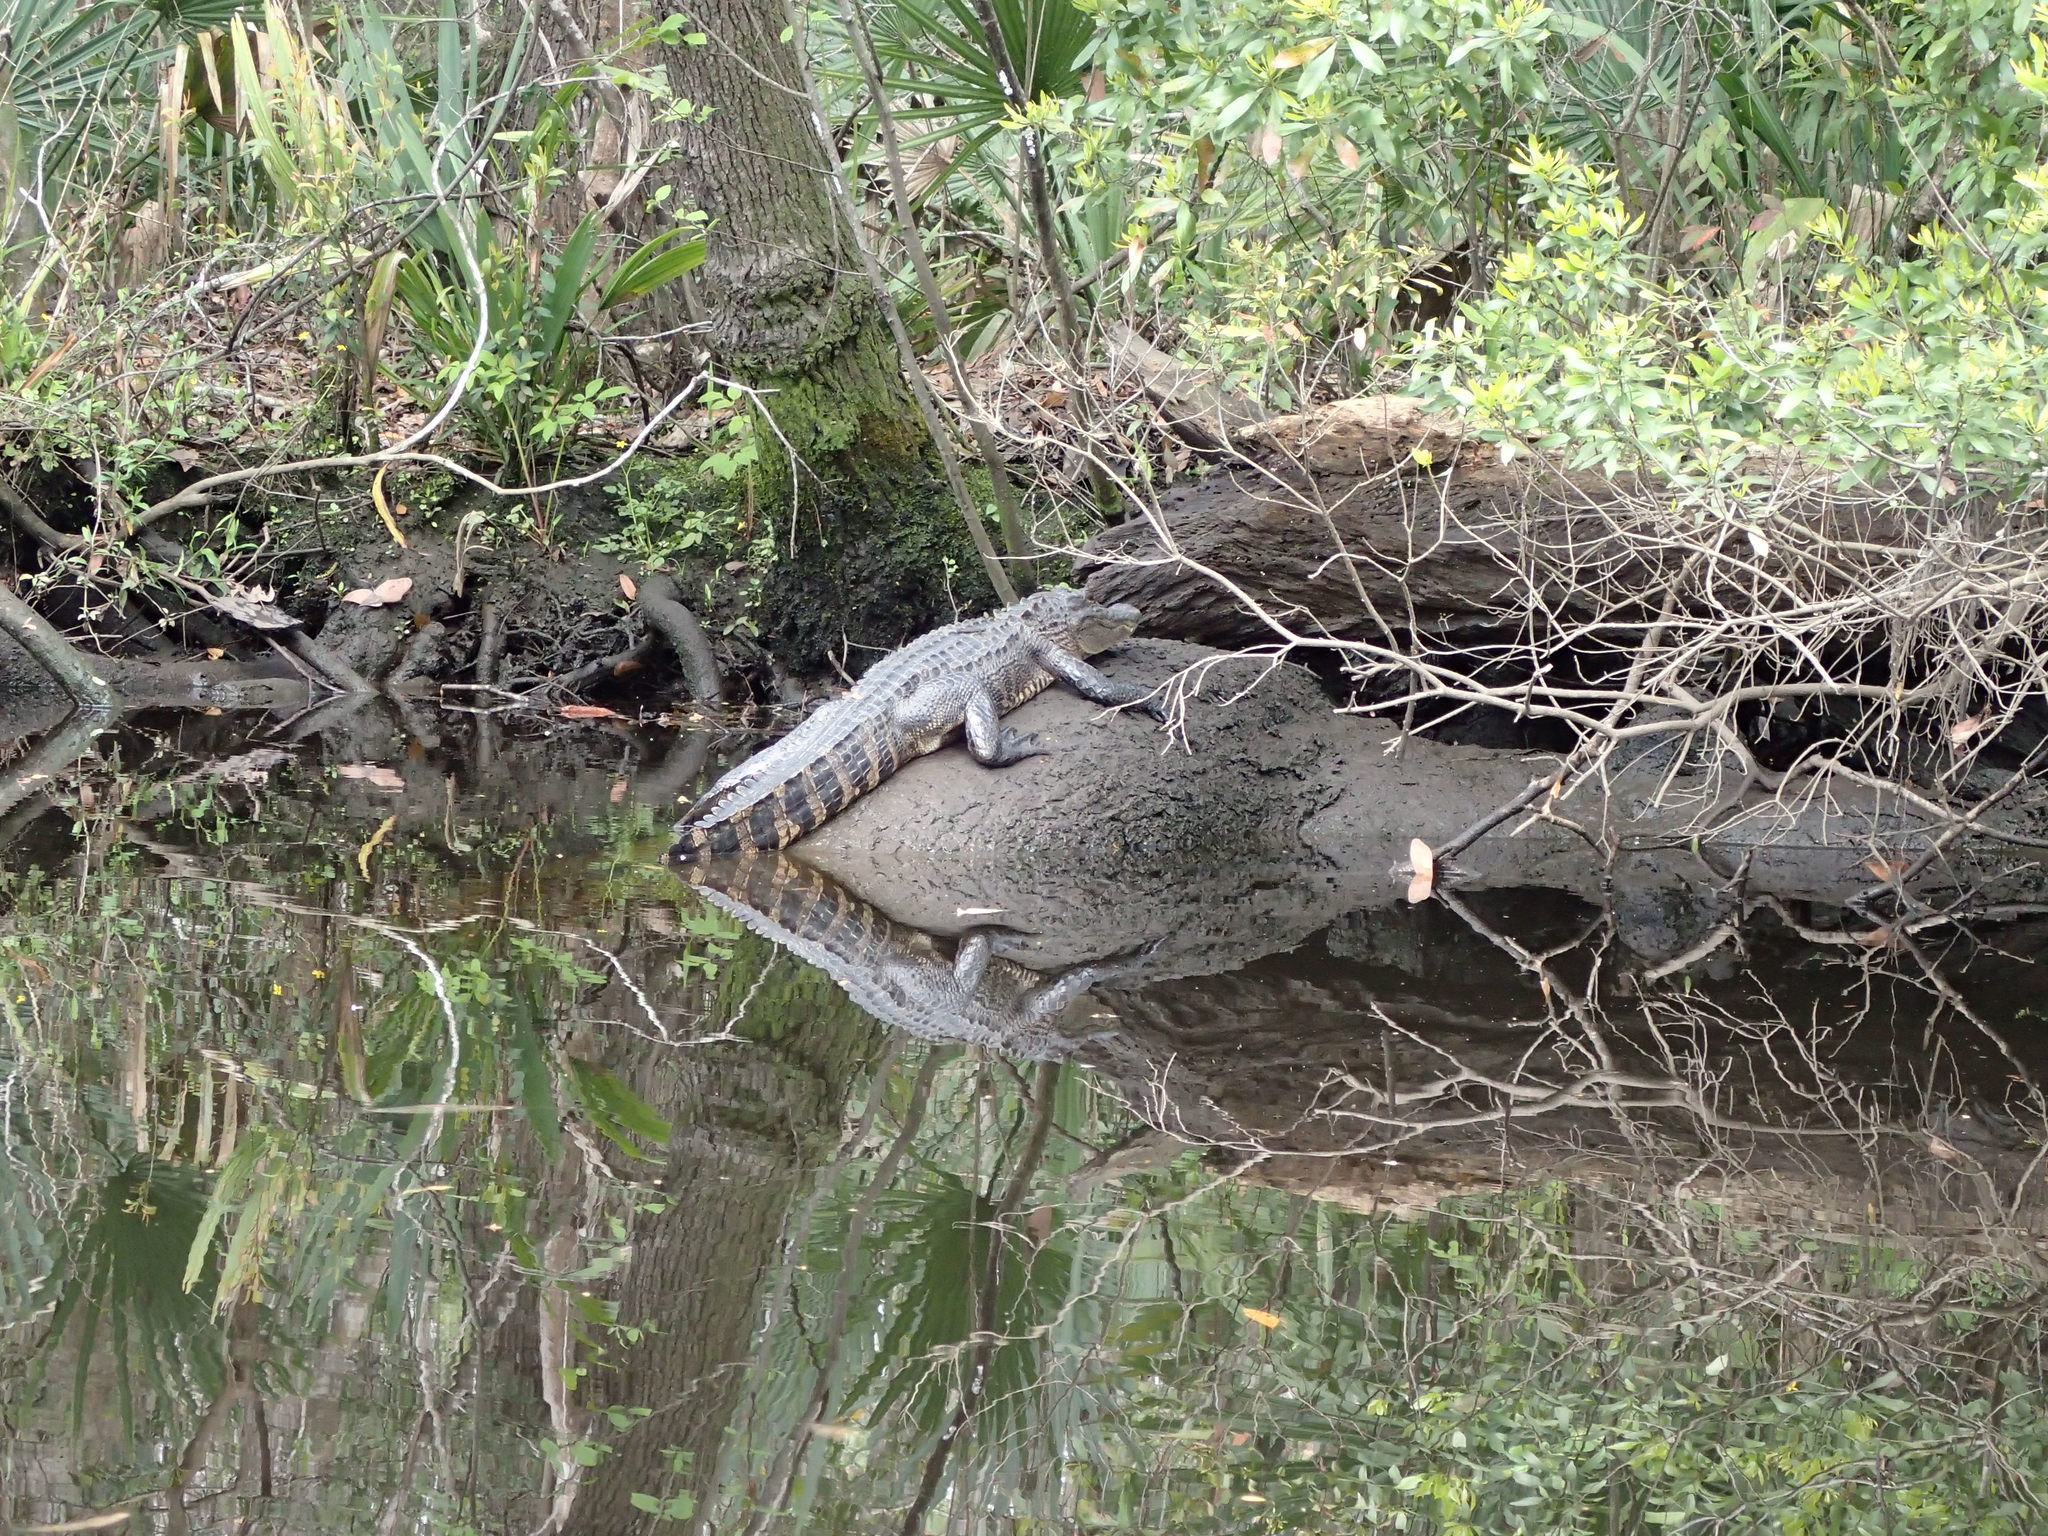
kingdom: Animalia
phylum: Chordata
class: Crocodylia
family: Alligatoridae
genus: Alligator
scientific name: Alligator mississippiensis
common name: American alligator
